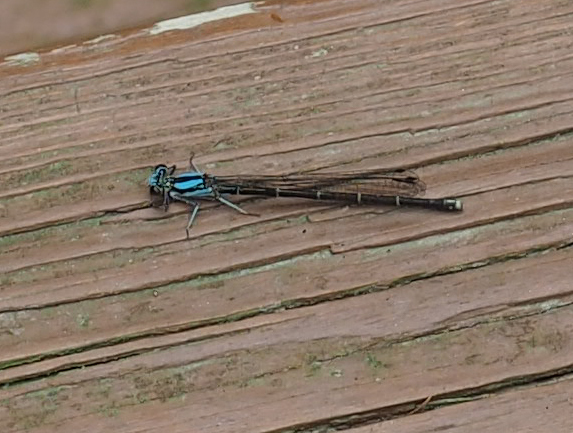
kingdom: Animalia
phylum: Arthropoda
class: Insecta
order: Odonata
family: Coenagrionidae
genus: Argia
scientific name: Argia tibialis
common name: Blue-tipped dancer
